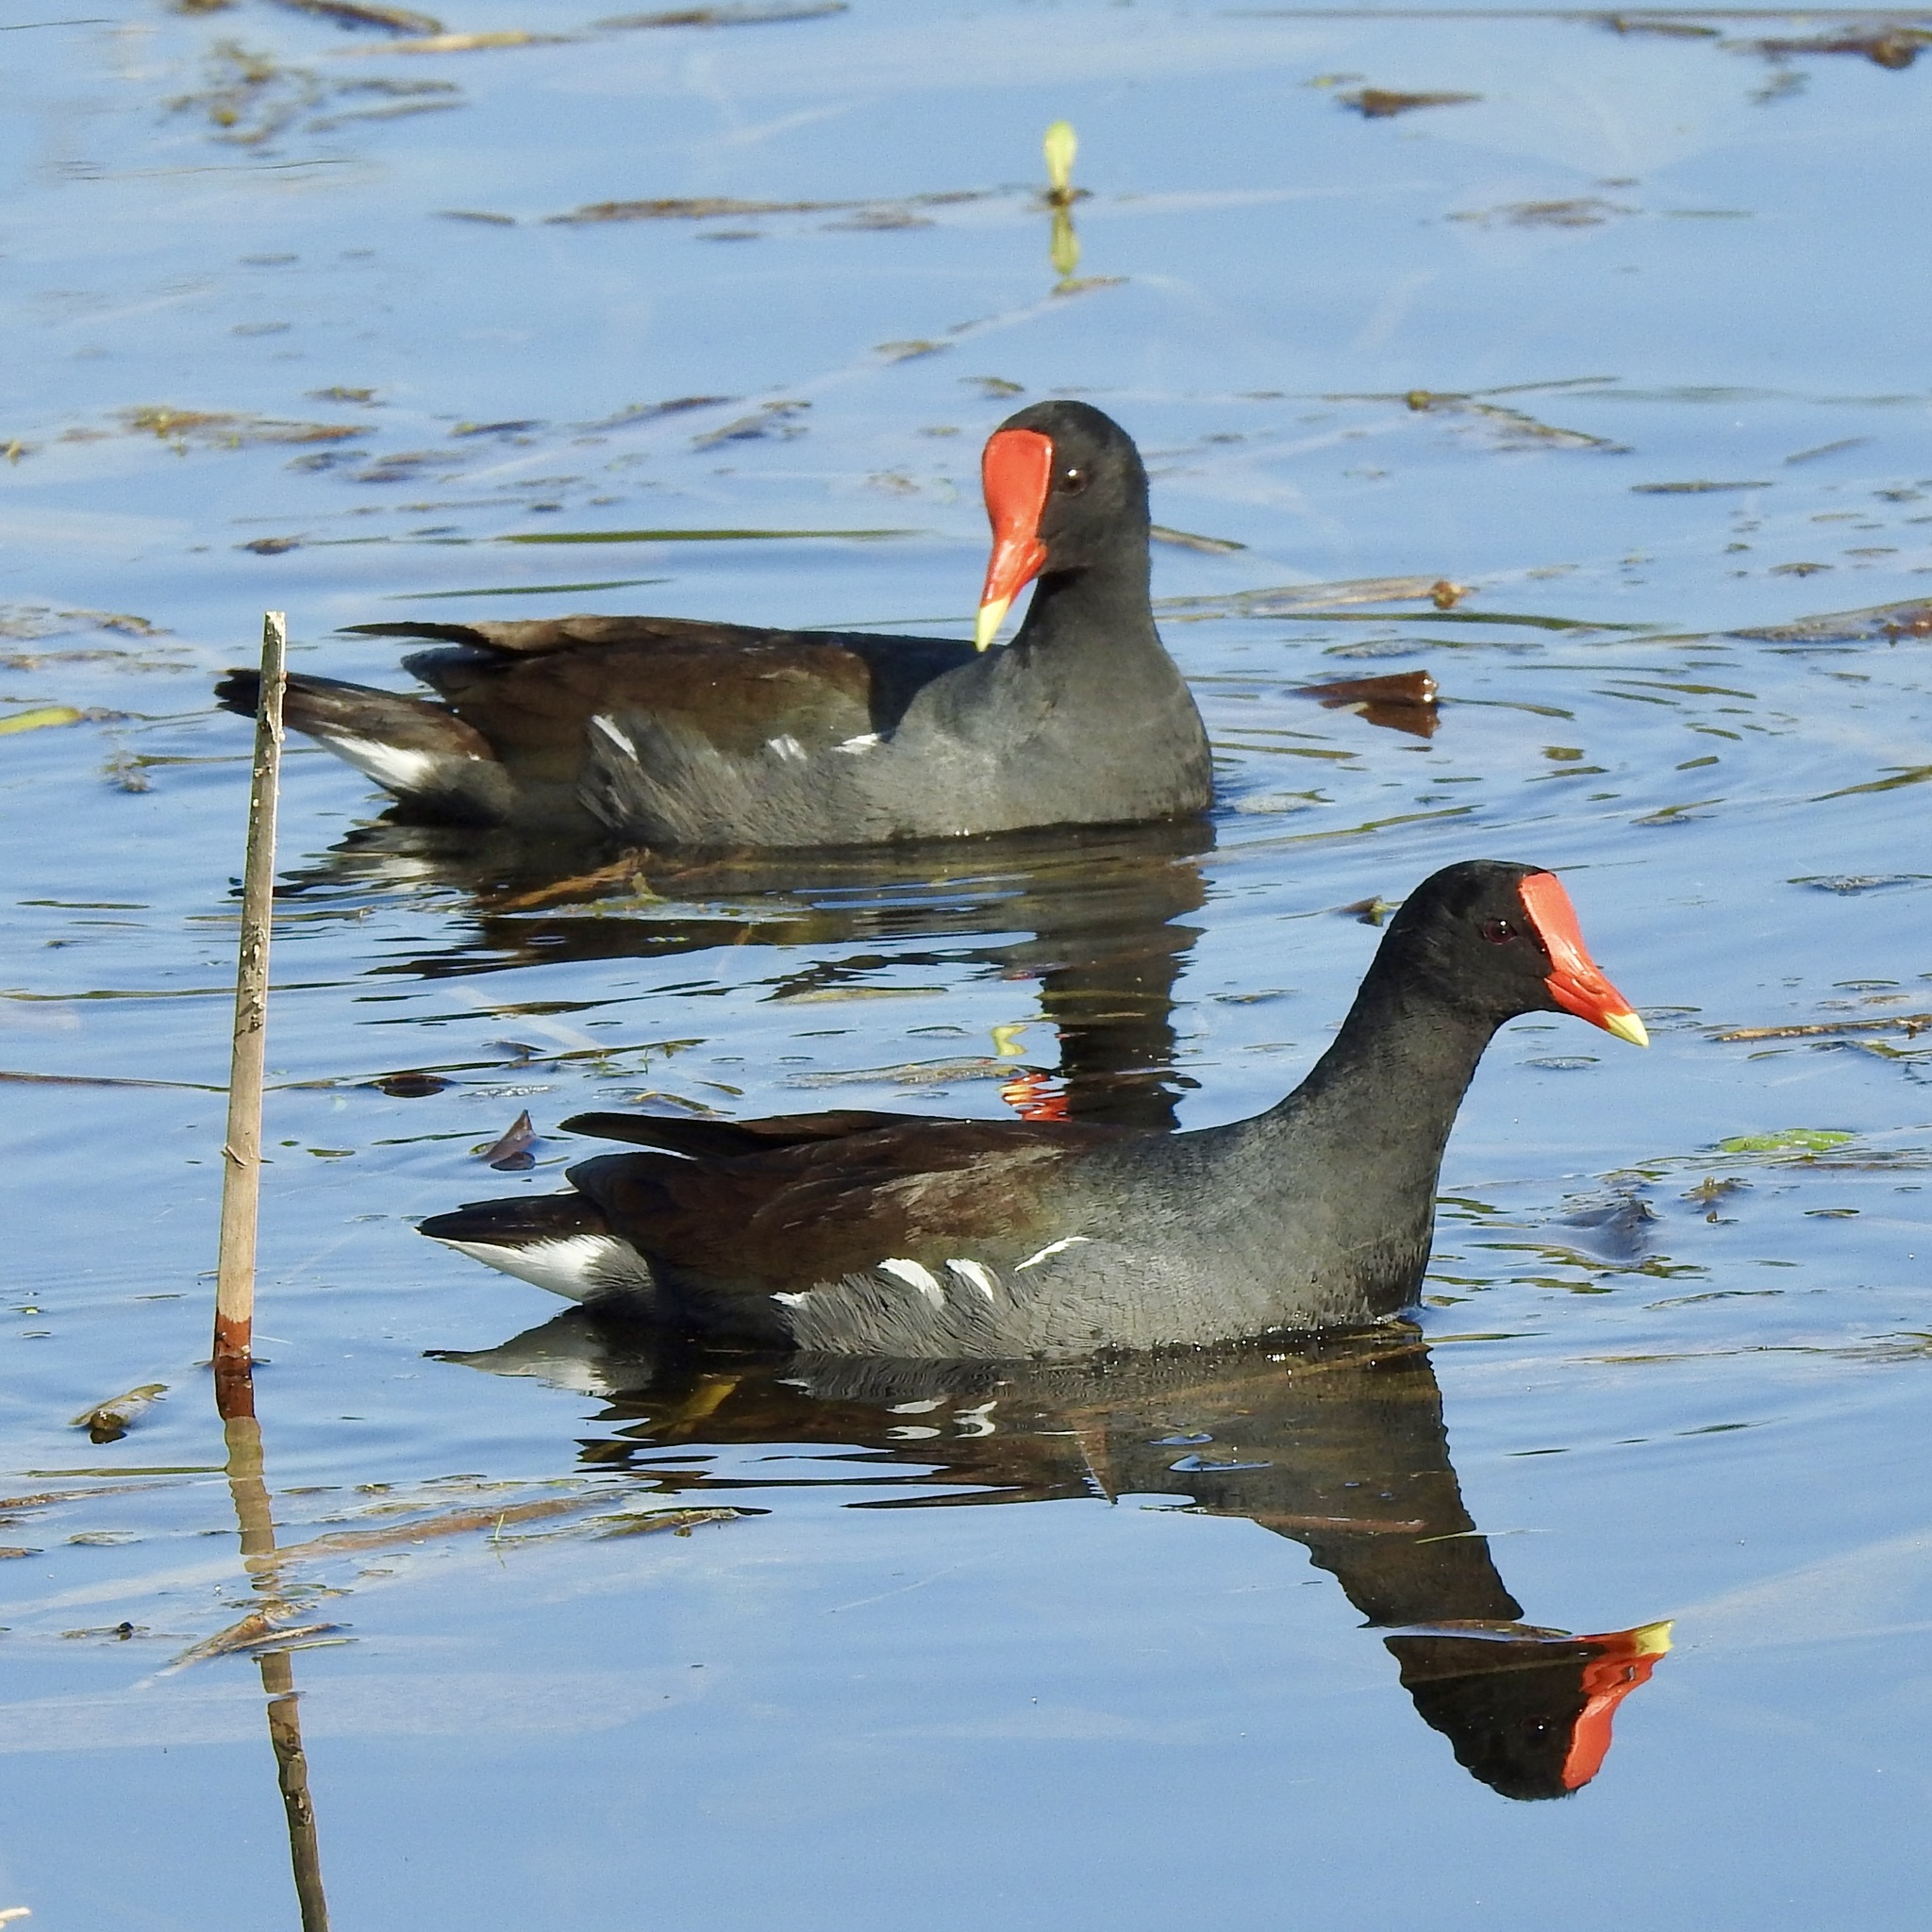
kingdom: Animalia
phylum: Chordata
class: Aves
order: Gruiformes
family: Rallidae
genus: Gallinula
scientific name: Gallinula chloropus
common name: Common moorhen
